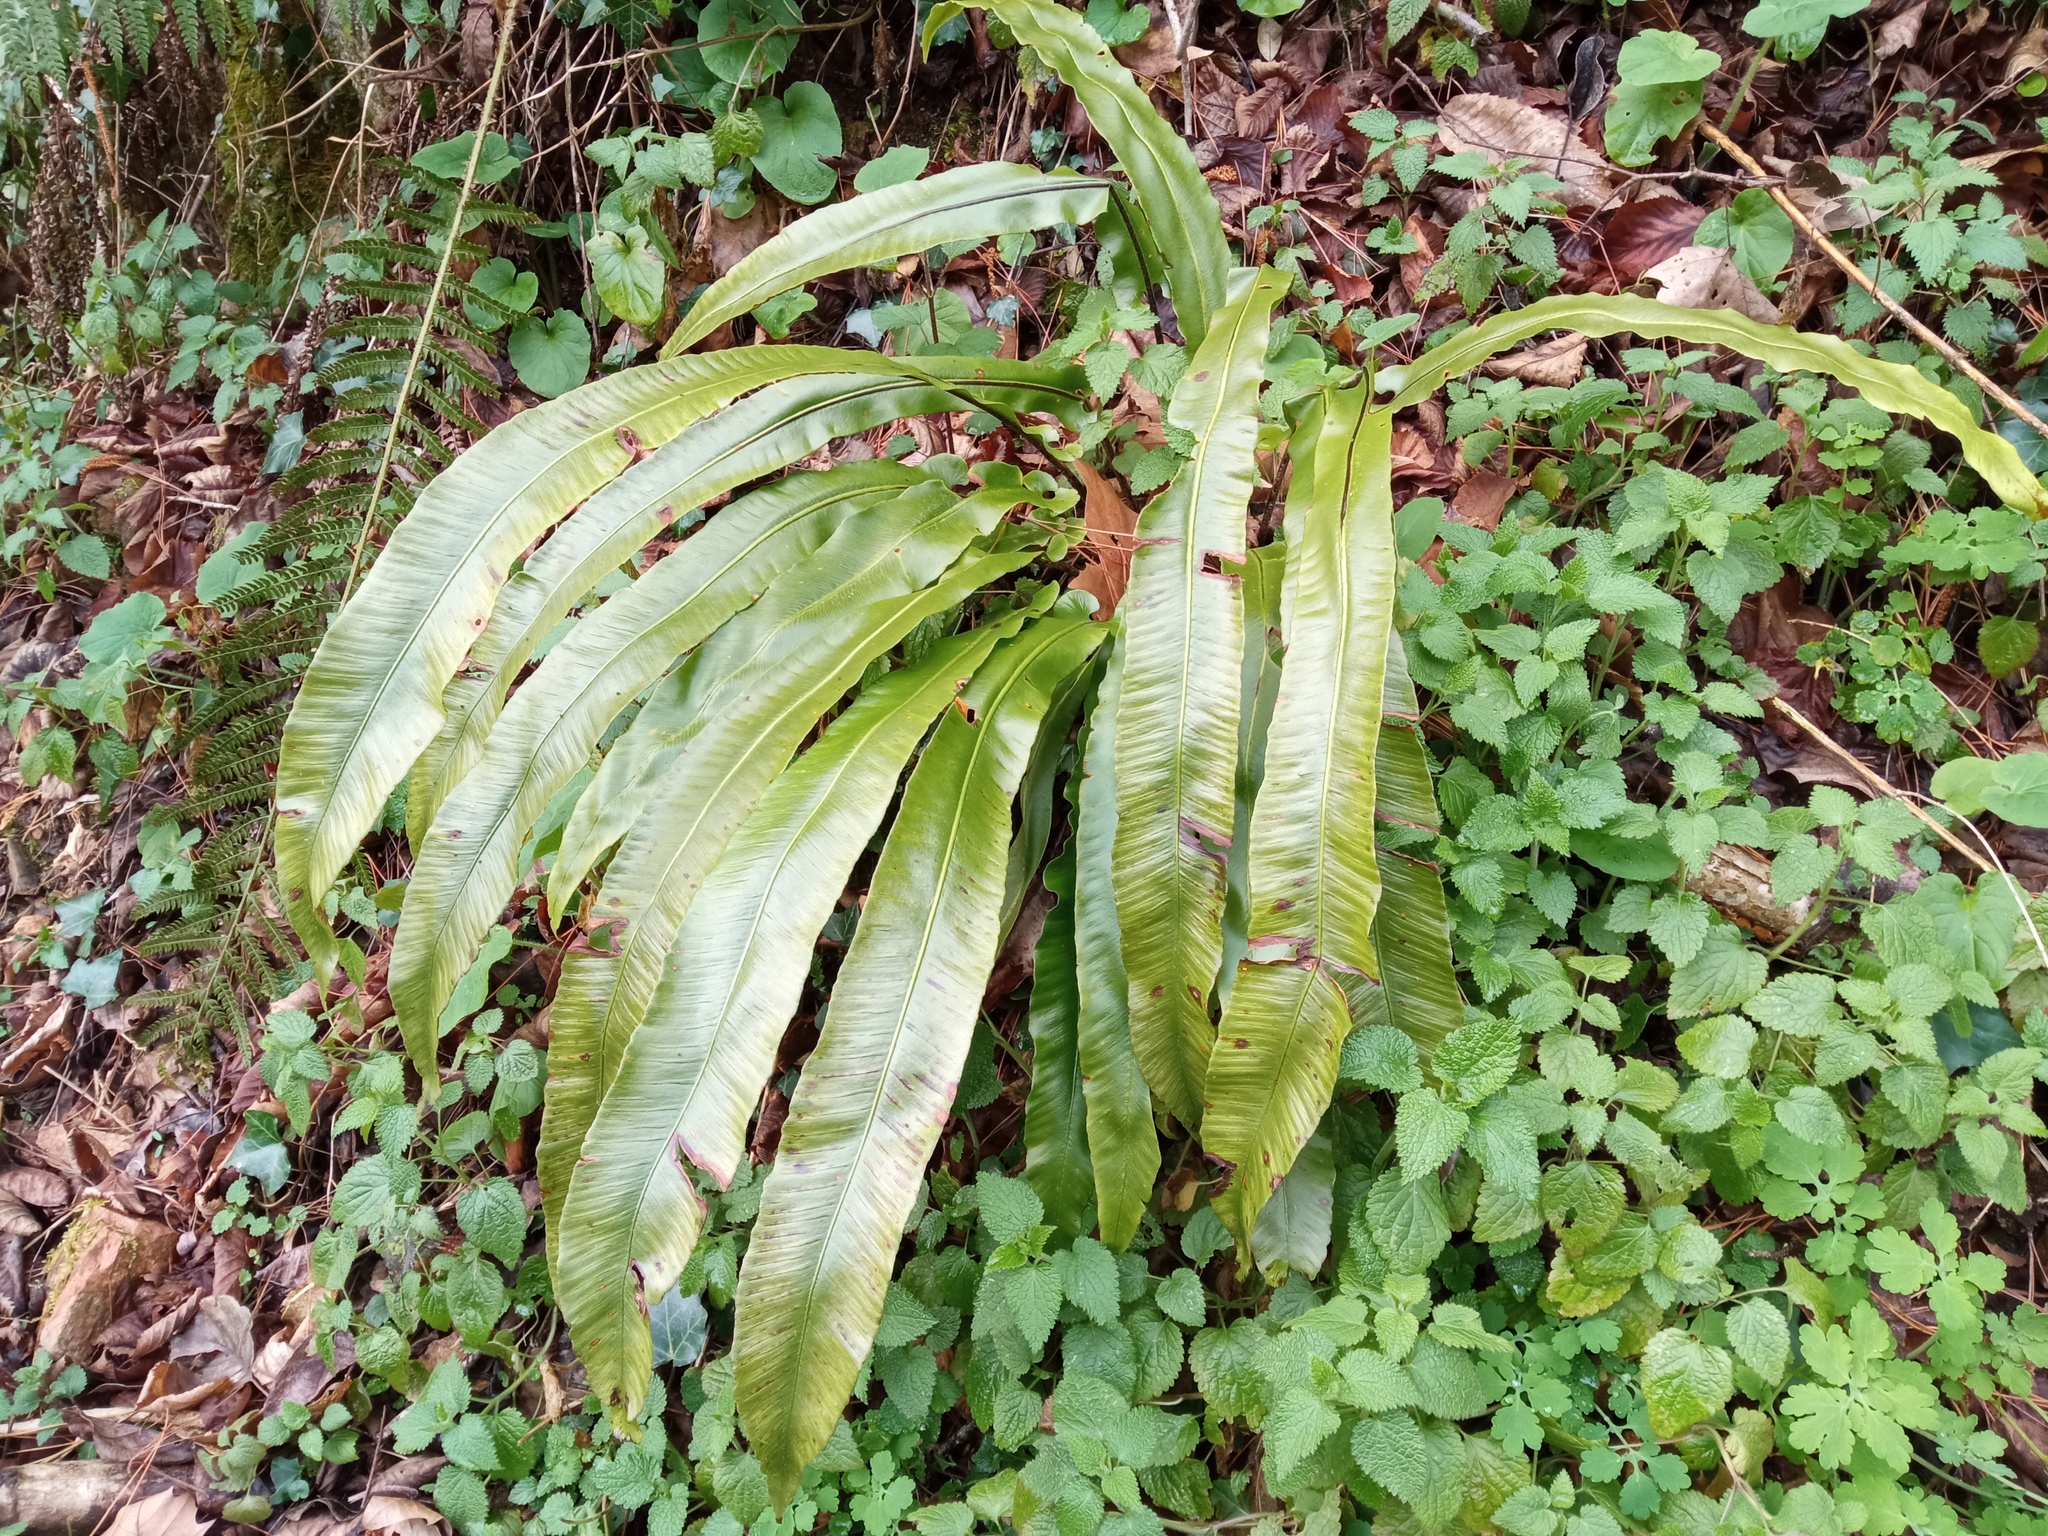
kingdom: Plantae
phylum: Tracheophyta
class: Polypodiopsida
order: Polypodiales
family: Aspleniaceae
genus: Asplenium
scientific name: Asplenium scolopendrium
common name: Hart's-tongue fern
